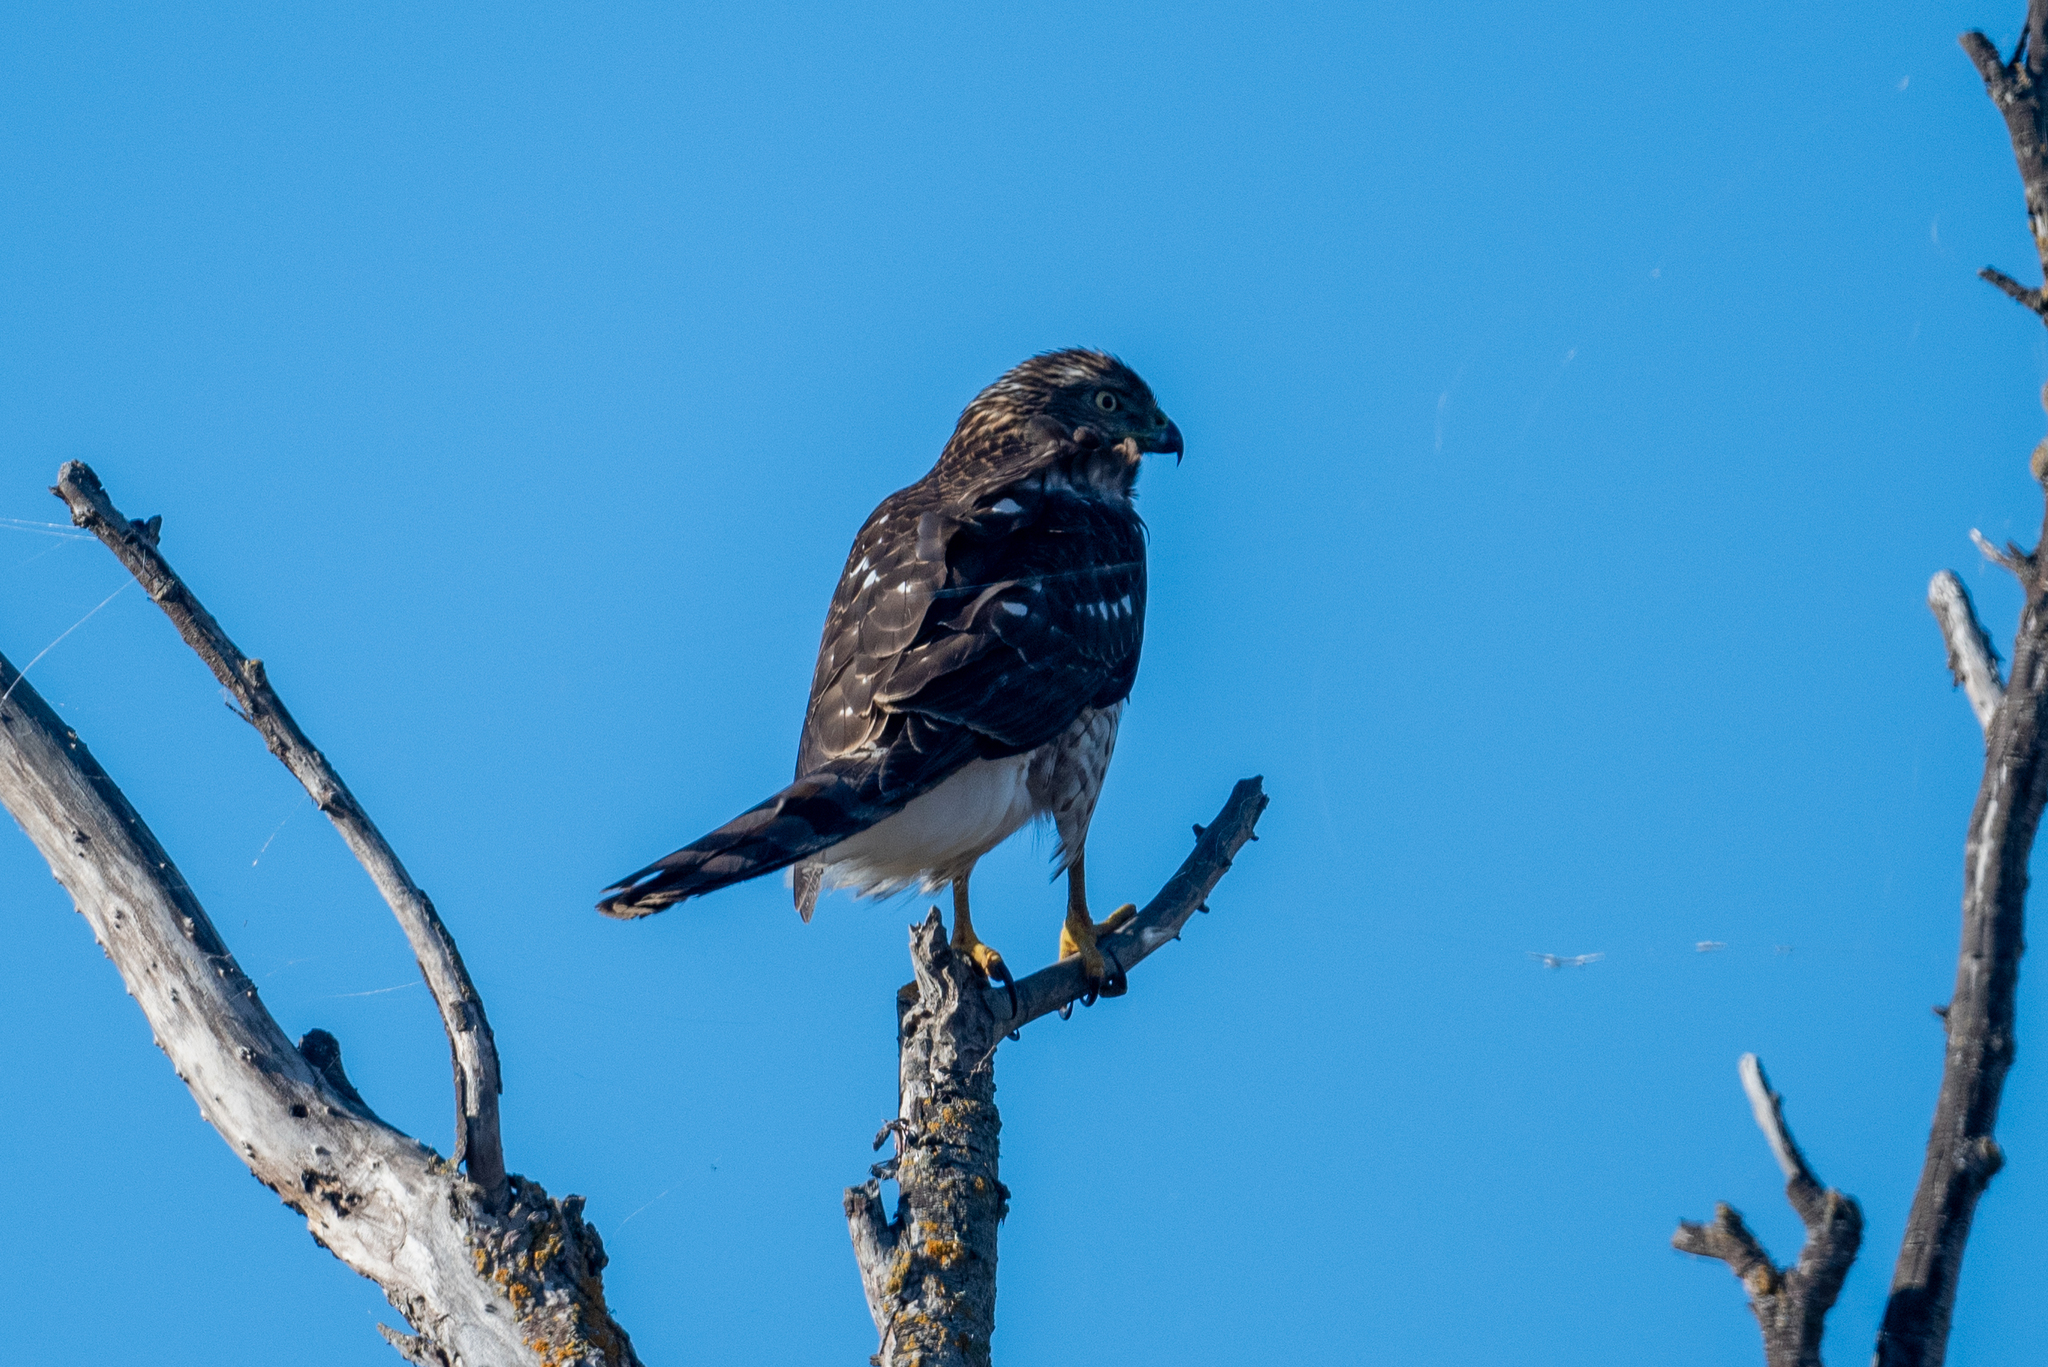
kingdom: Animalia
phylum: Chordata
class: Aves
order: Accipitriformes
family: Accipitridae
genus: Accipiter
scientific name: Accipiter cooperii
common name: Cooper's hawk
